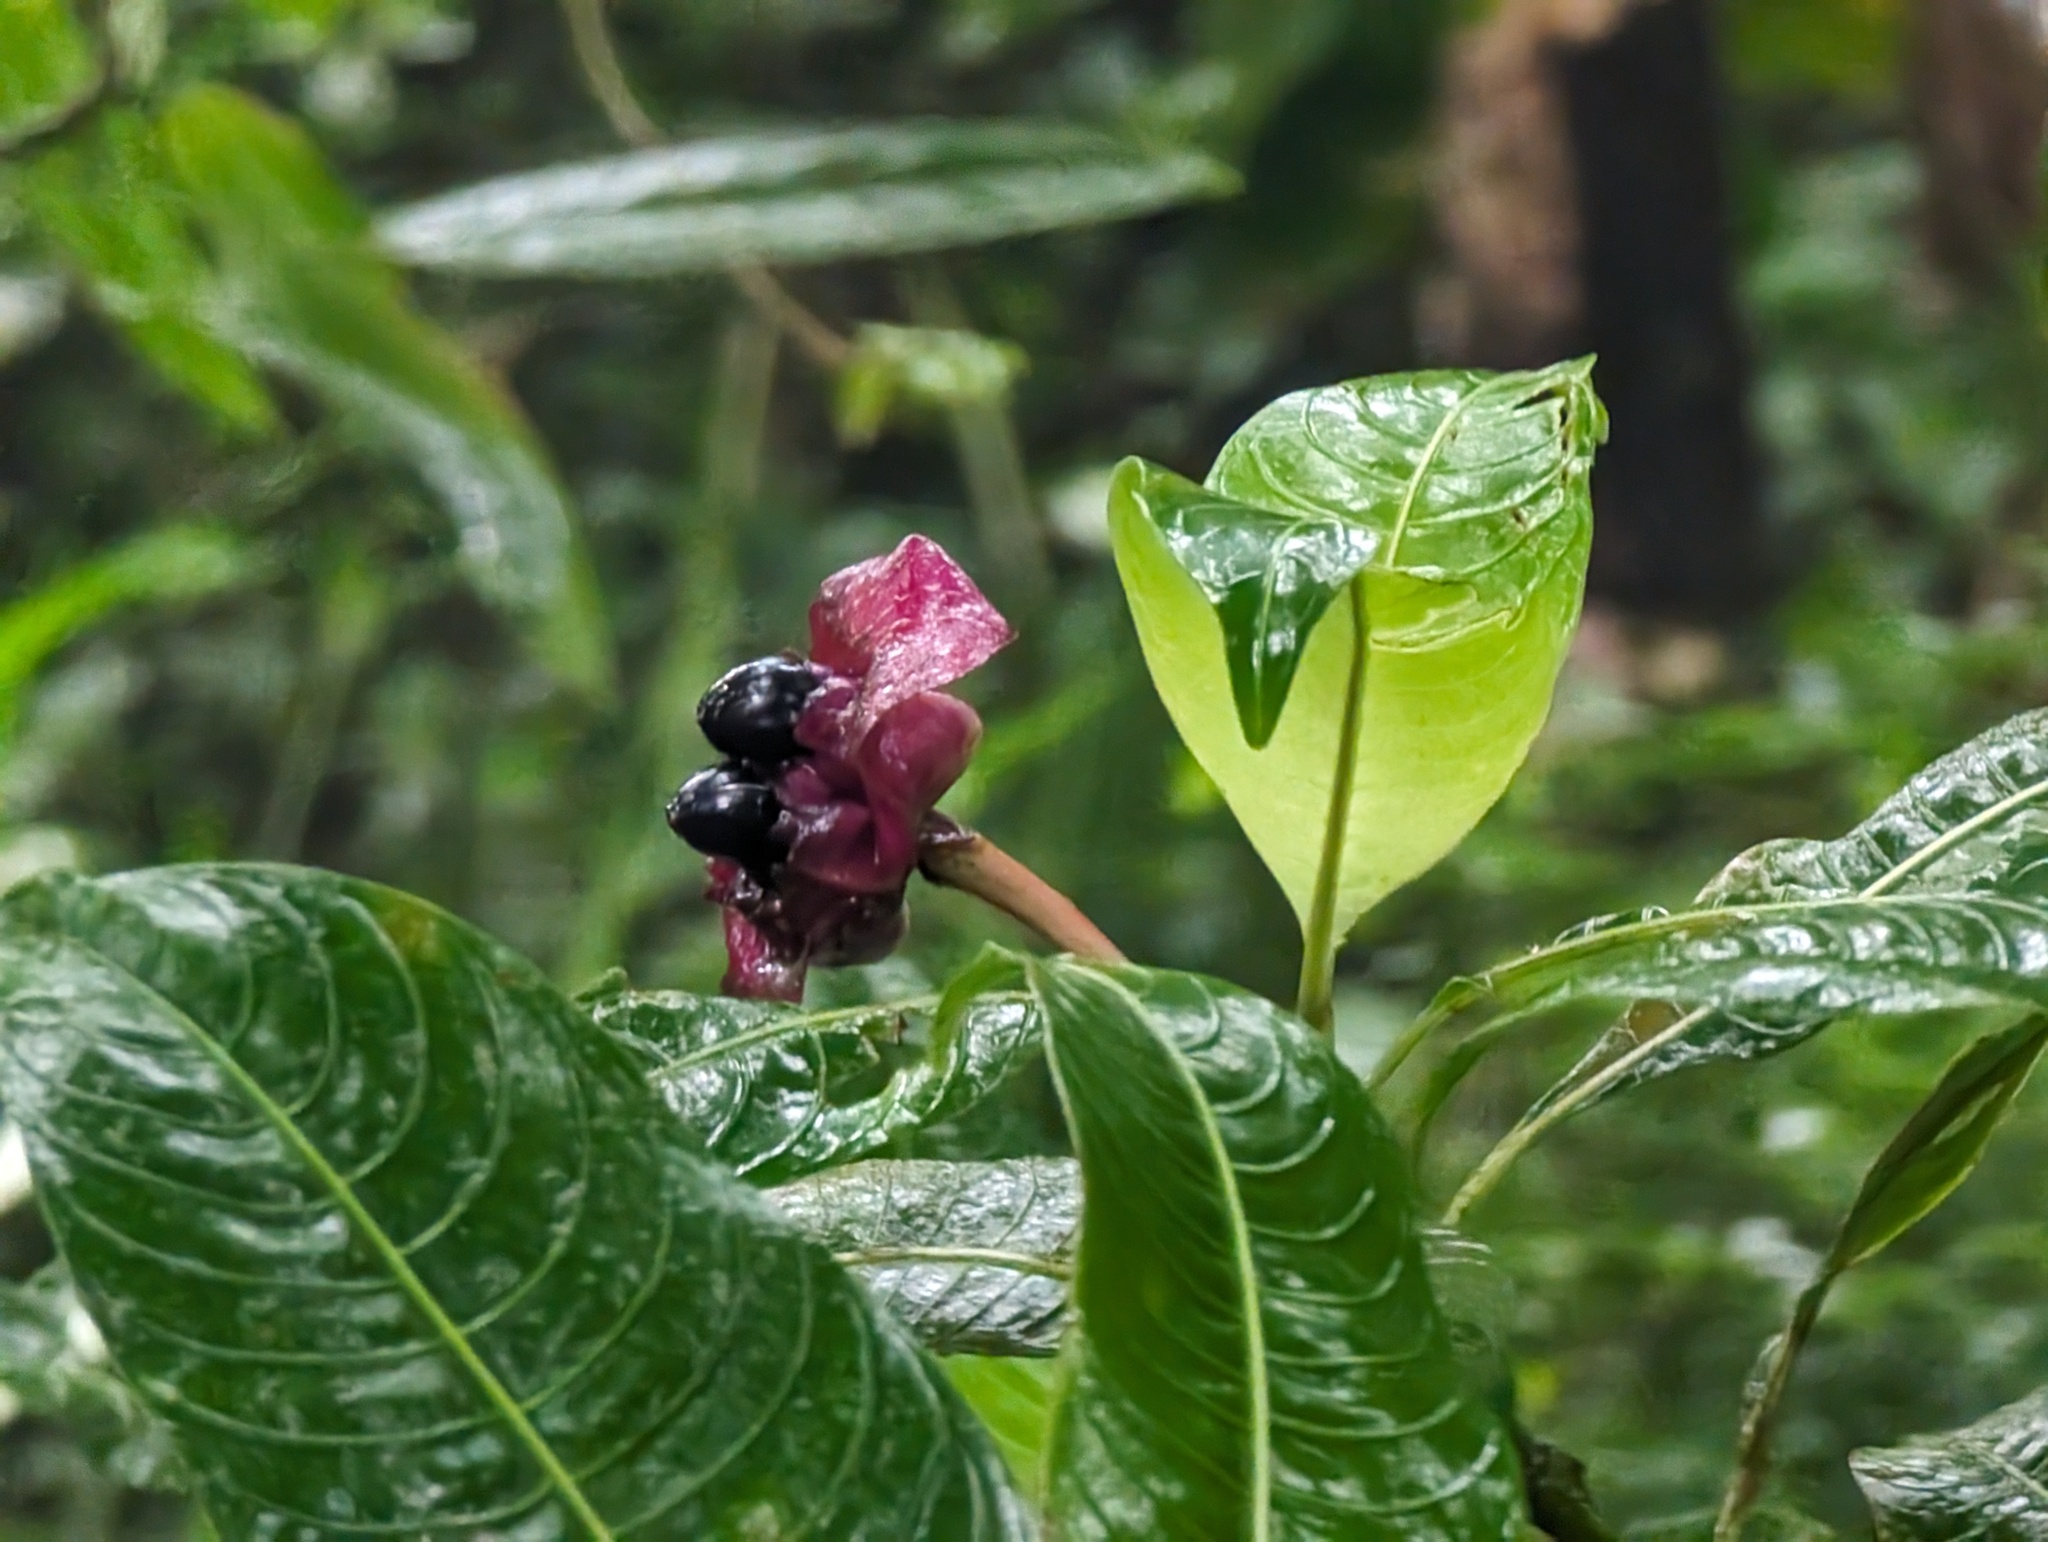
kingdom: Plantae
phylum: Tracheophyta
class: Magnoliopsida
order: Gentianales
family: Rubiaceae
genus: Palicourea
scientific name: Palicourea elata
